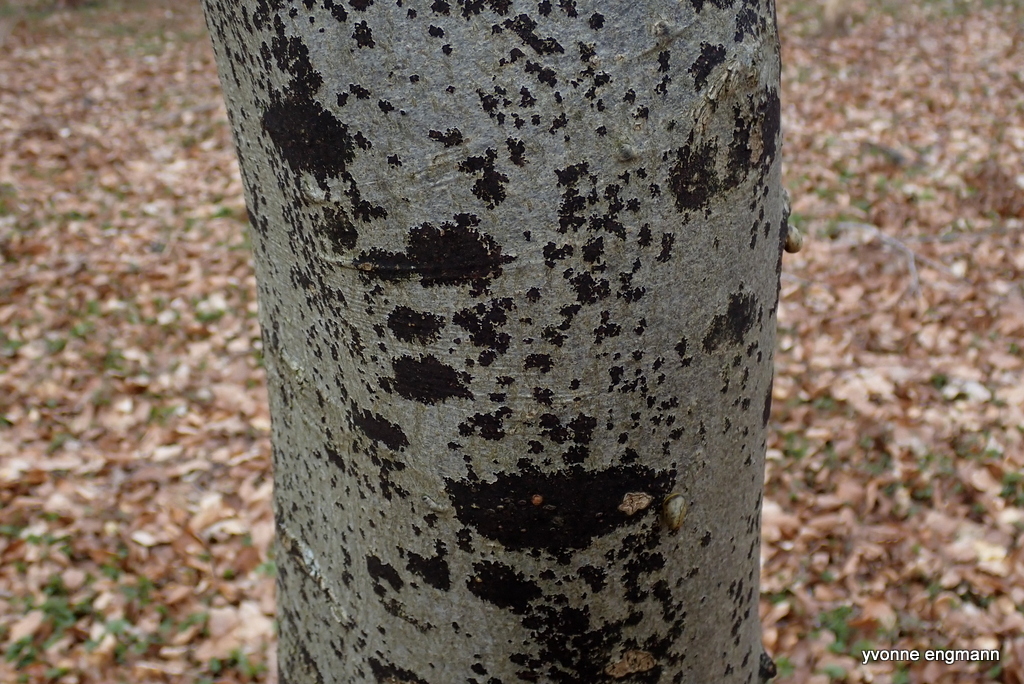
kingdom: Fungi
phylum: Ascomycota
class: Leotiomycetes
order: Rhytismatales
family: Ascodichaenaceae
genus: Ascodichaena
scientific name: Ascodichaena rugosa
